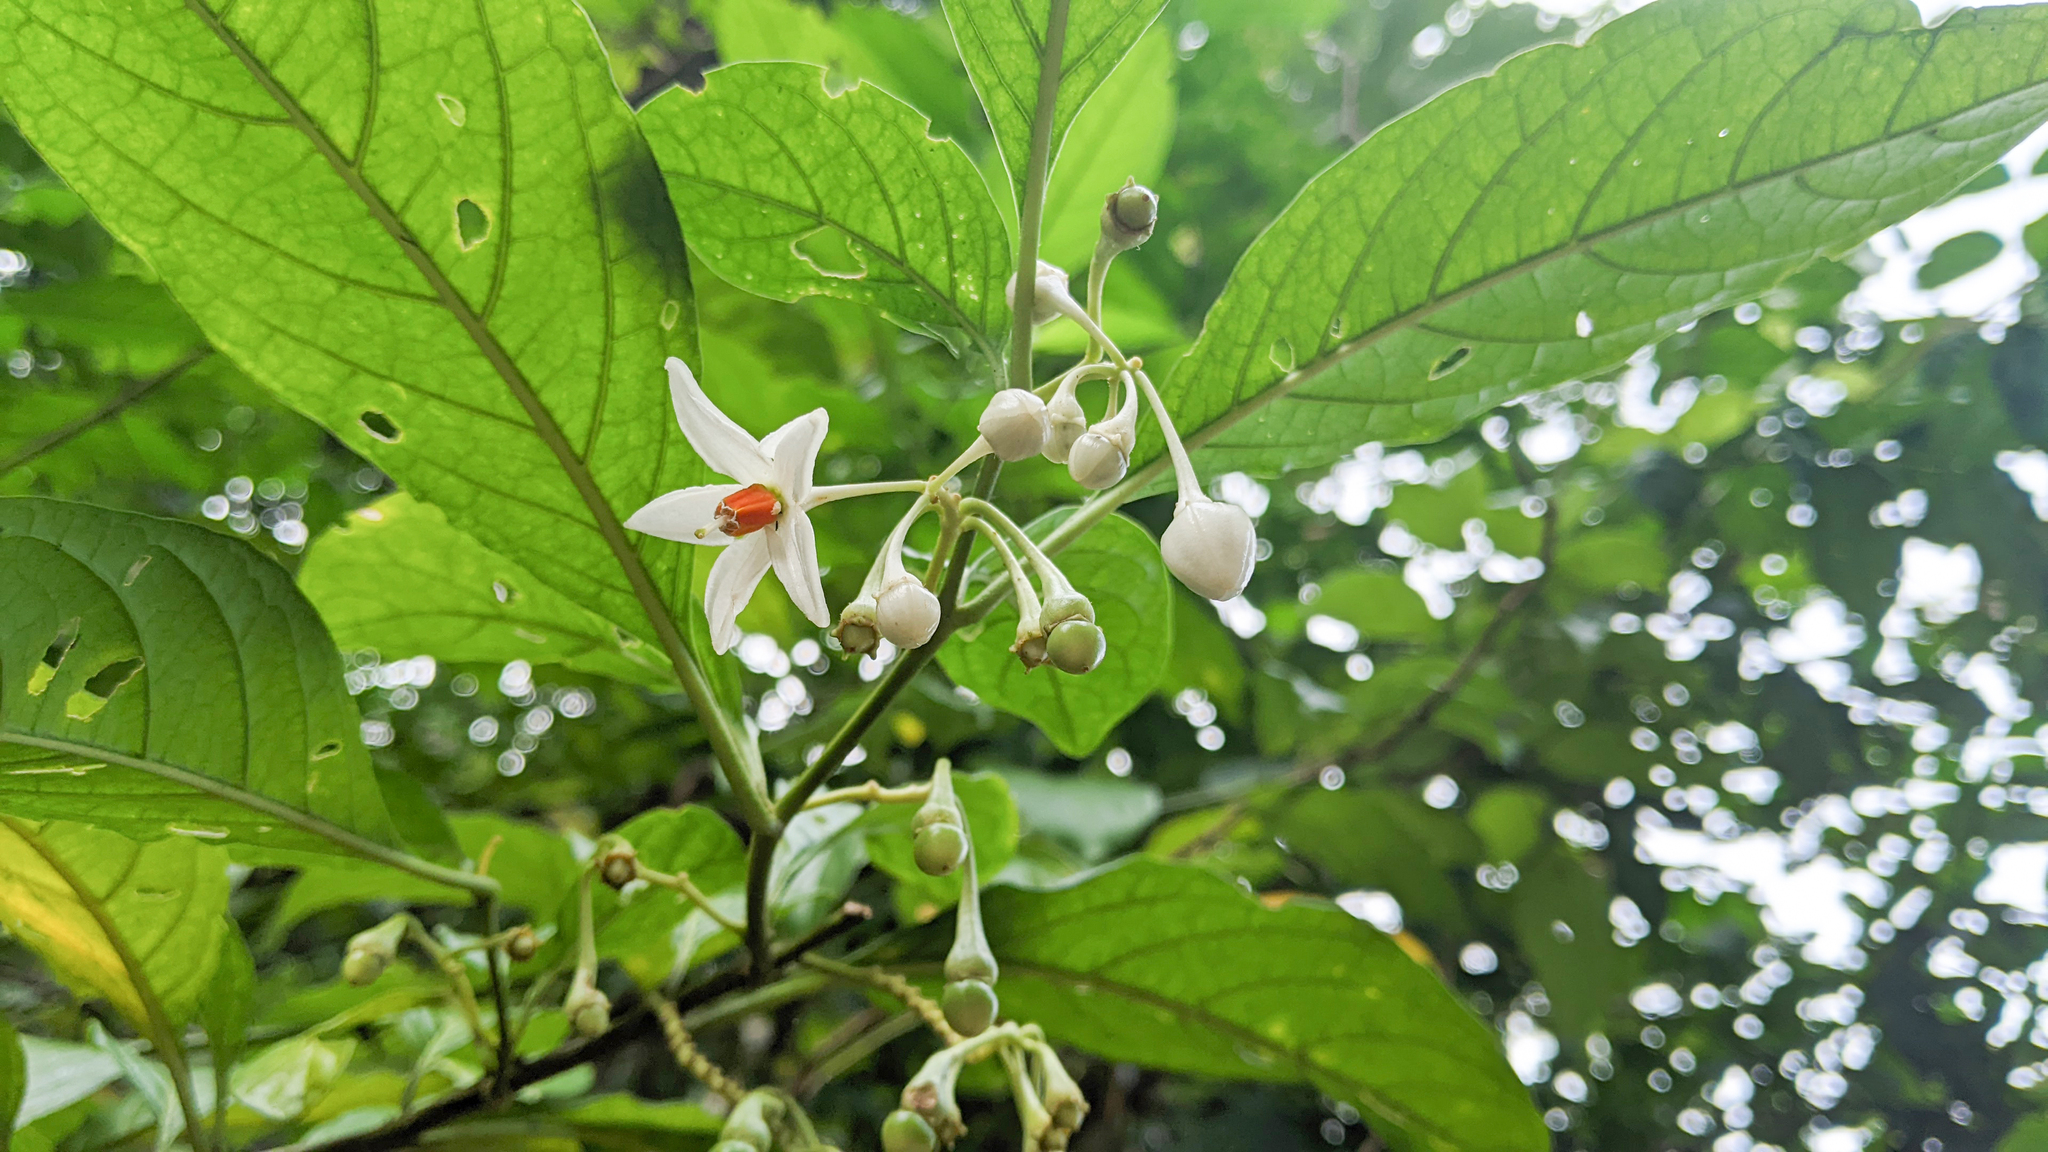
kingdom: Plantae
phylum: Tracheophyta
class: Magnoliopsida
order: Solanales
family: Solanaceae
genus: Solanum
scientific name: Solanum leucocarpon
